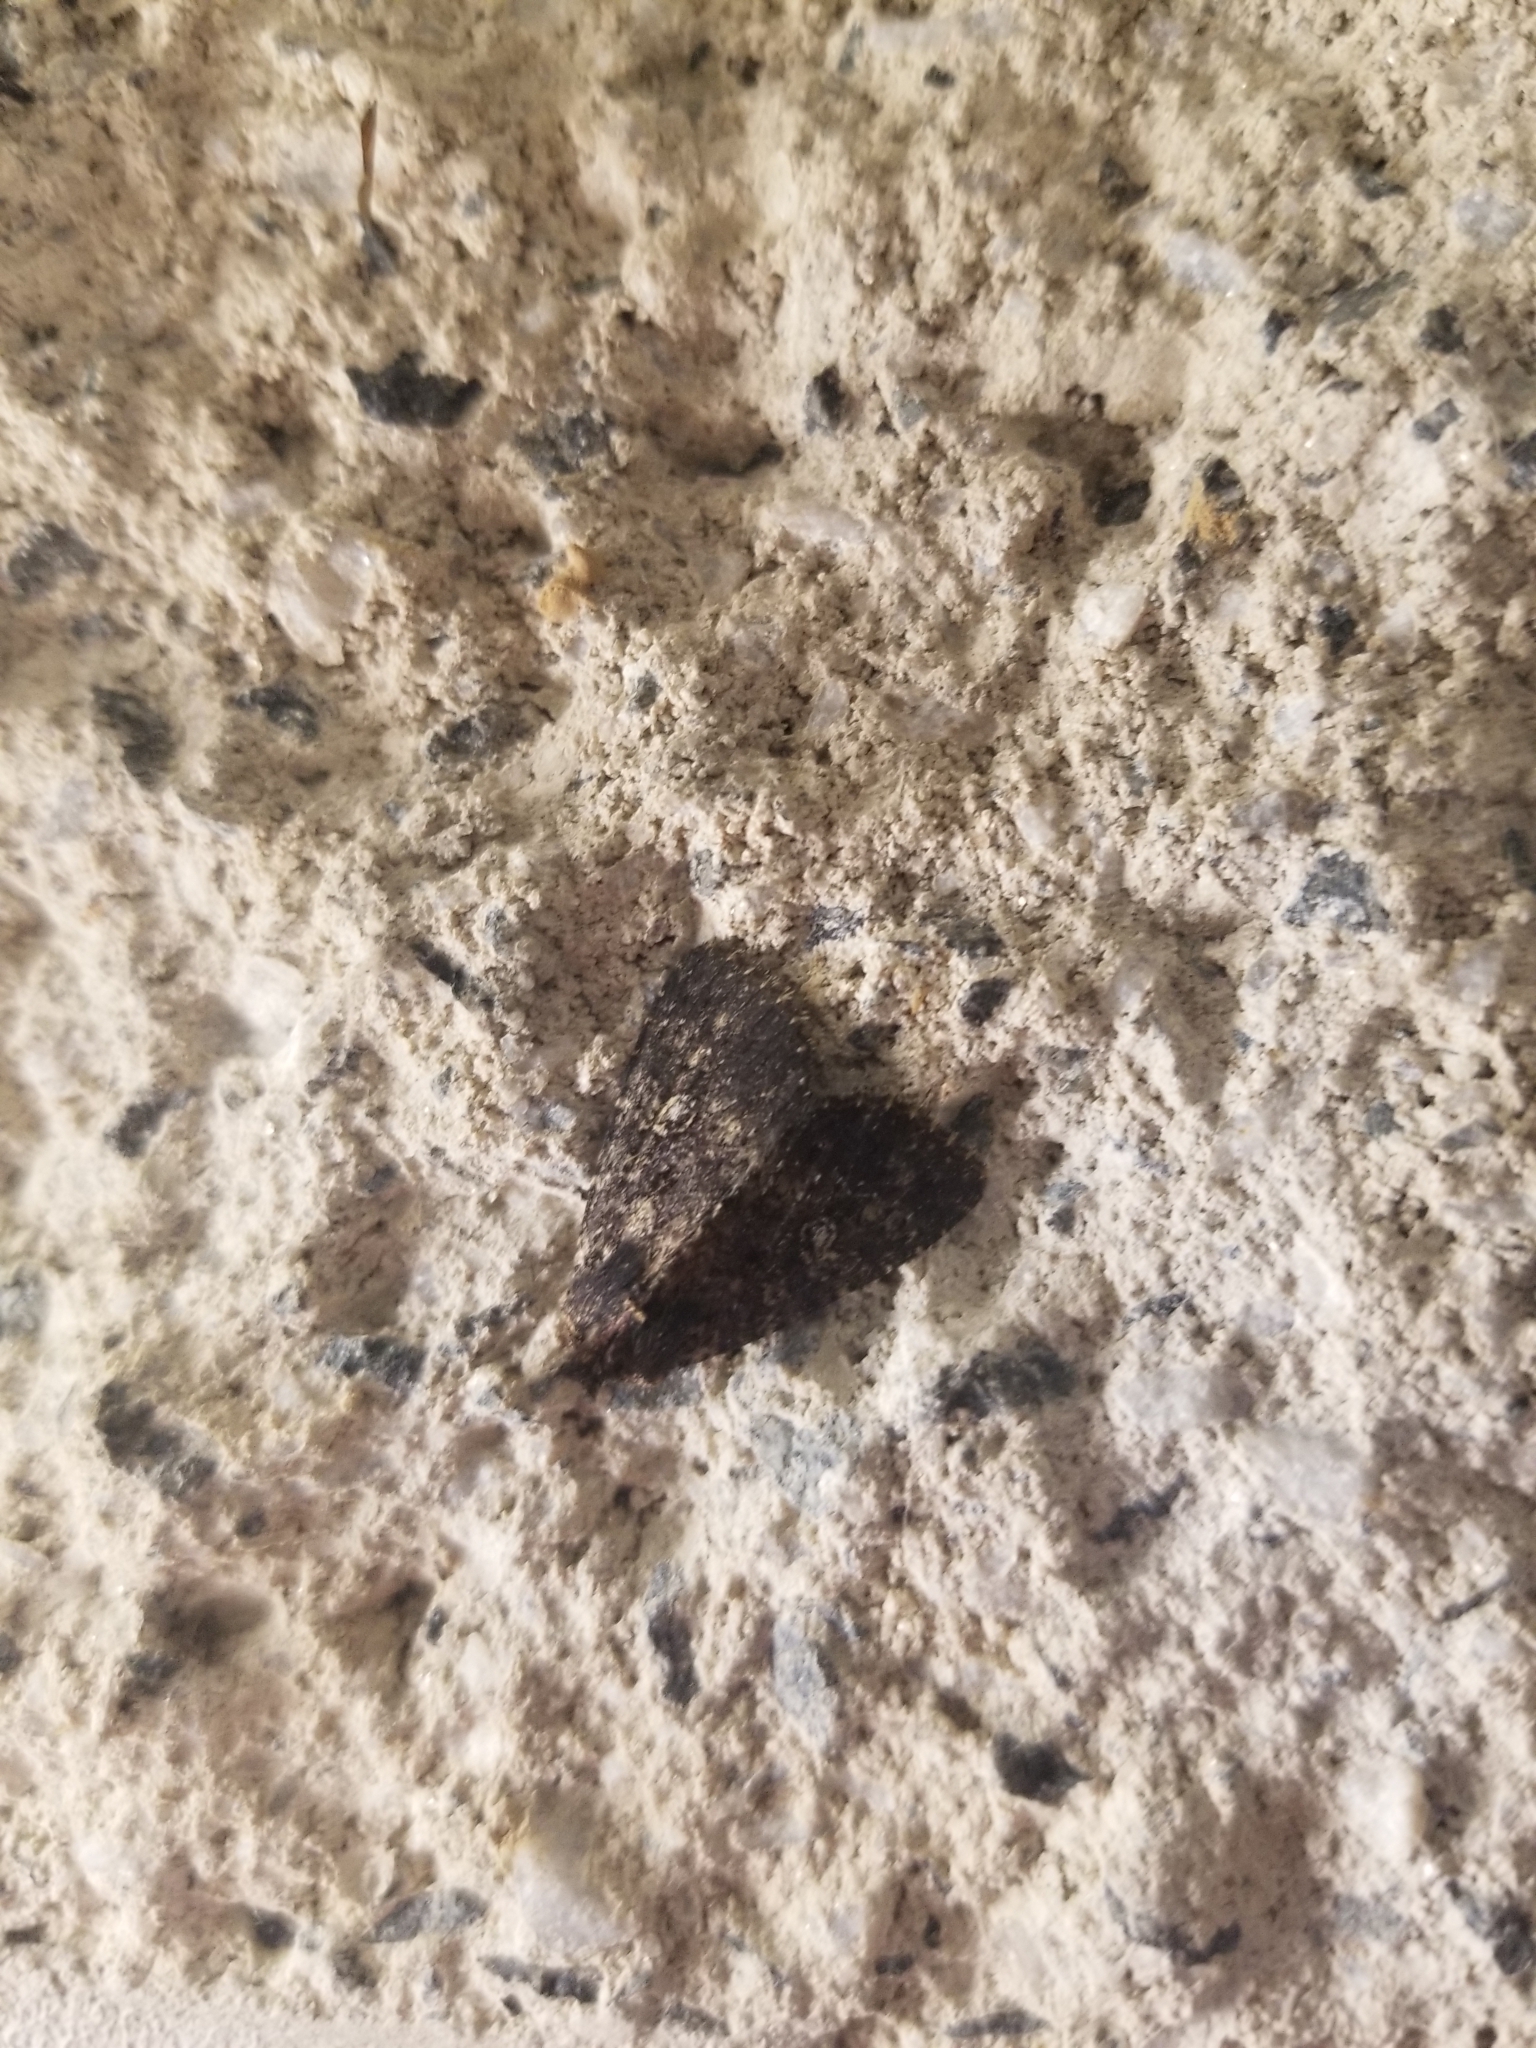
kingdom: Animalia
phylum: Arthropoda
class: Insecta
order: Lepidoptera
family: Noctuidae
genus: Condica
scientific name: Condica vecors
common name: Dusky groundling
